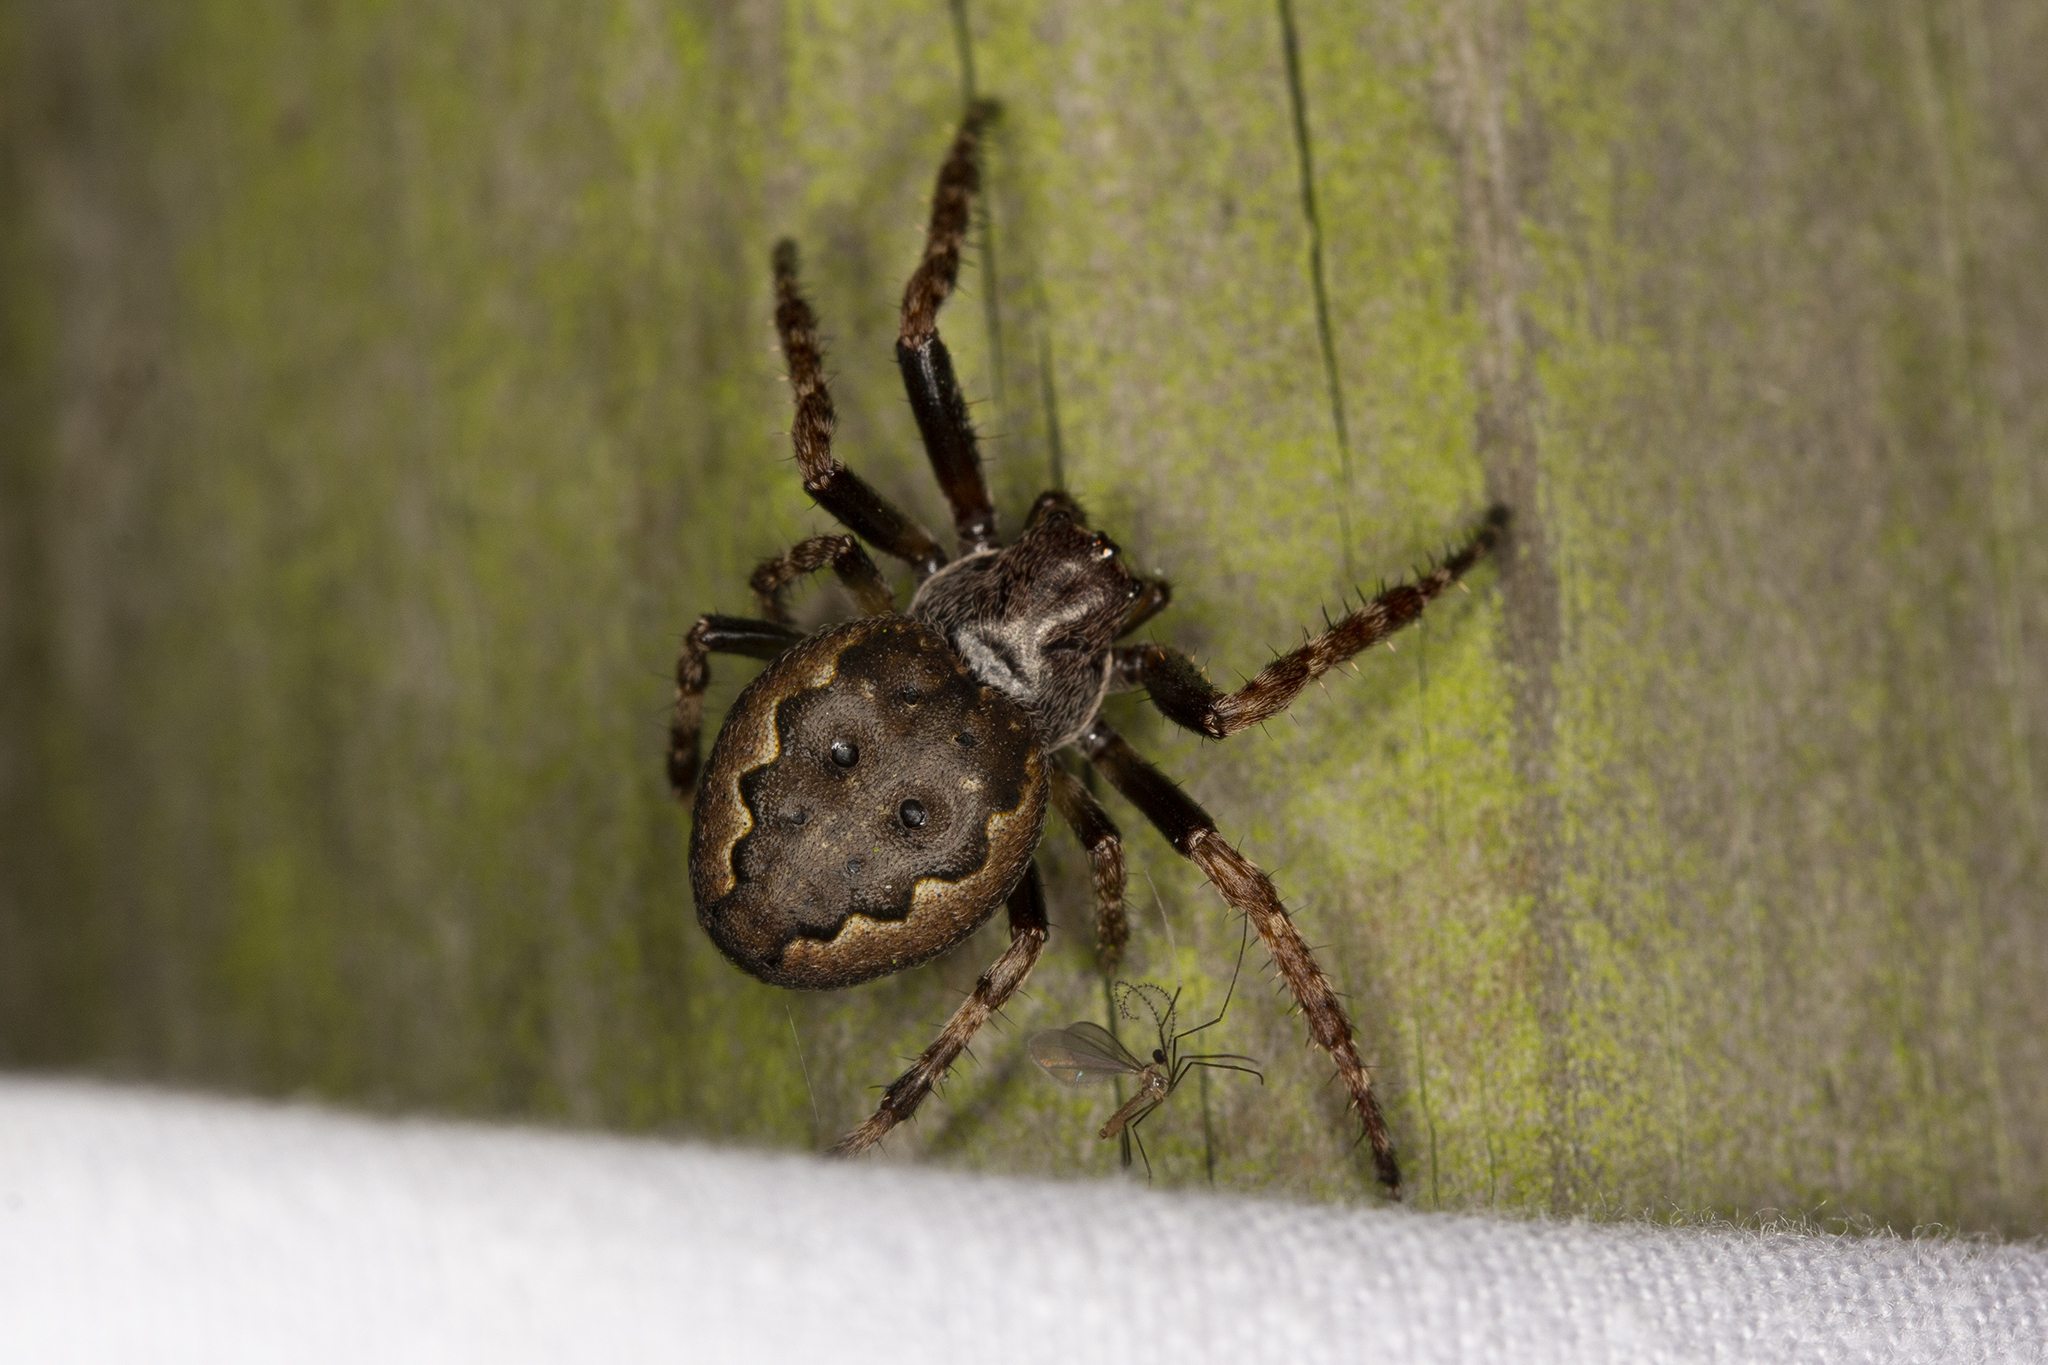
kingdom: Animalia
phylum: Arthropoda
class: Arachnida
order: Araneae
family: Araneidae
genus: Nuctenea
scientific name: Nuctenea umbratica
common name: Toad spider
